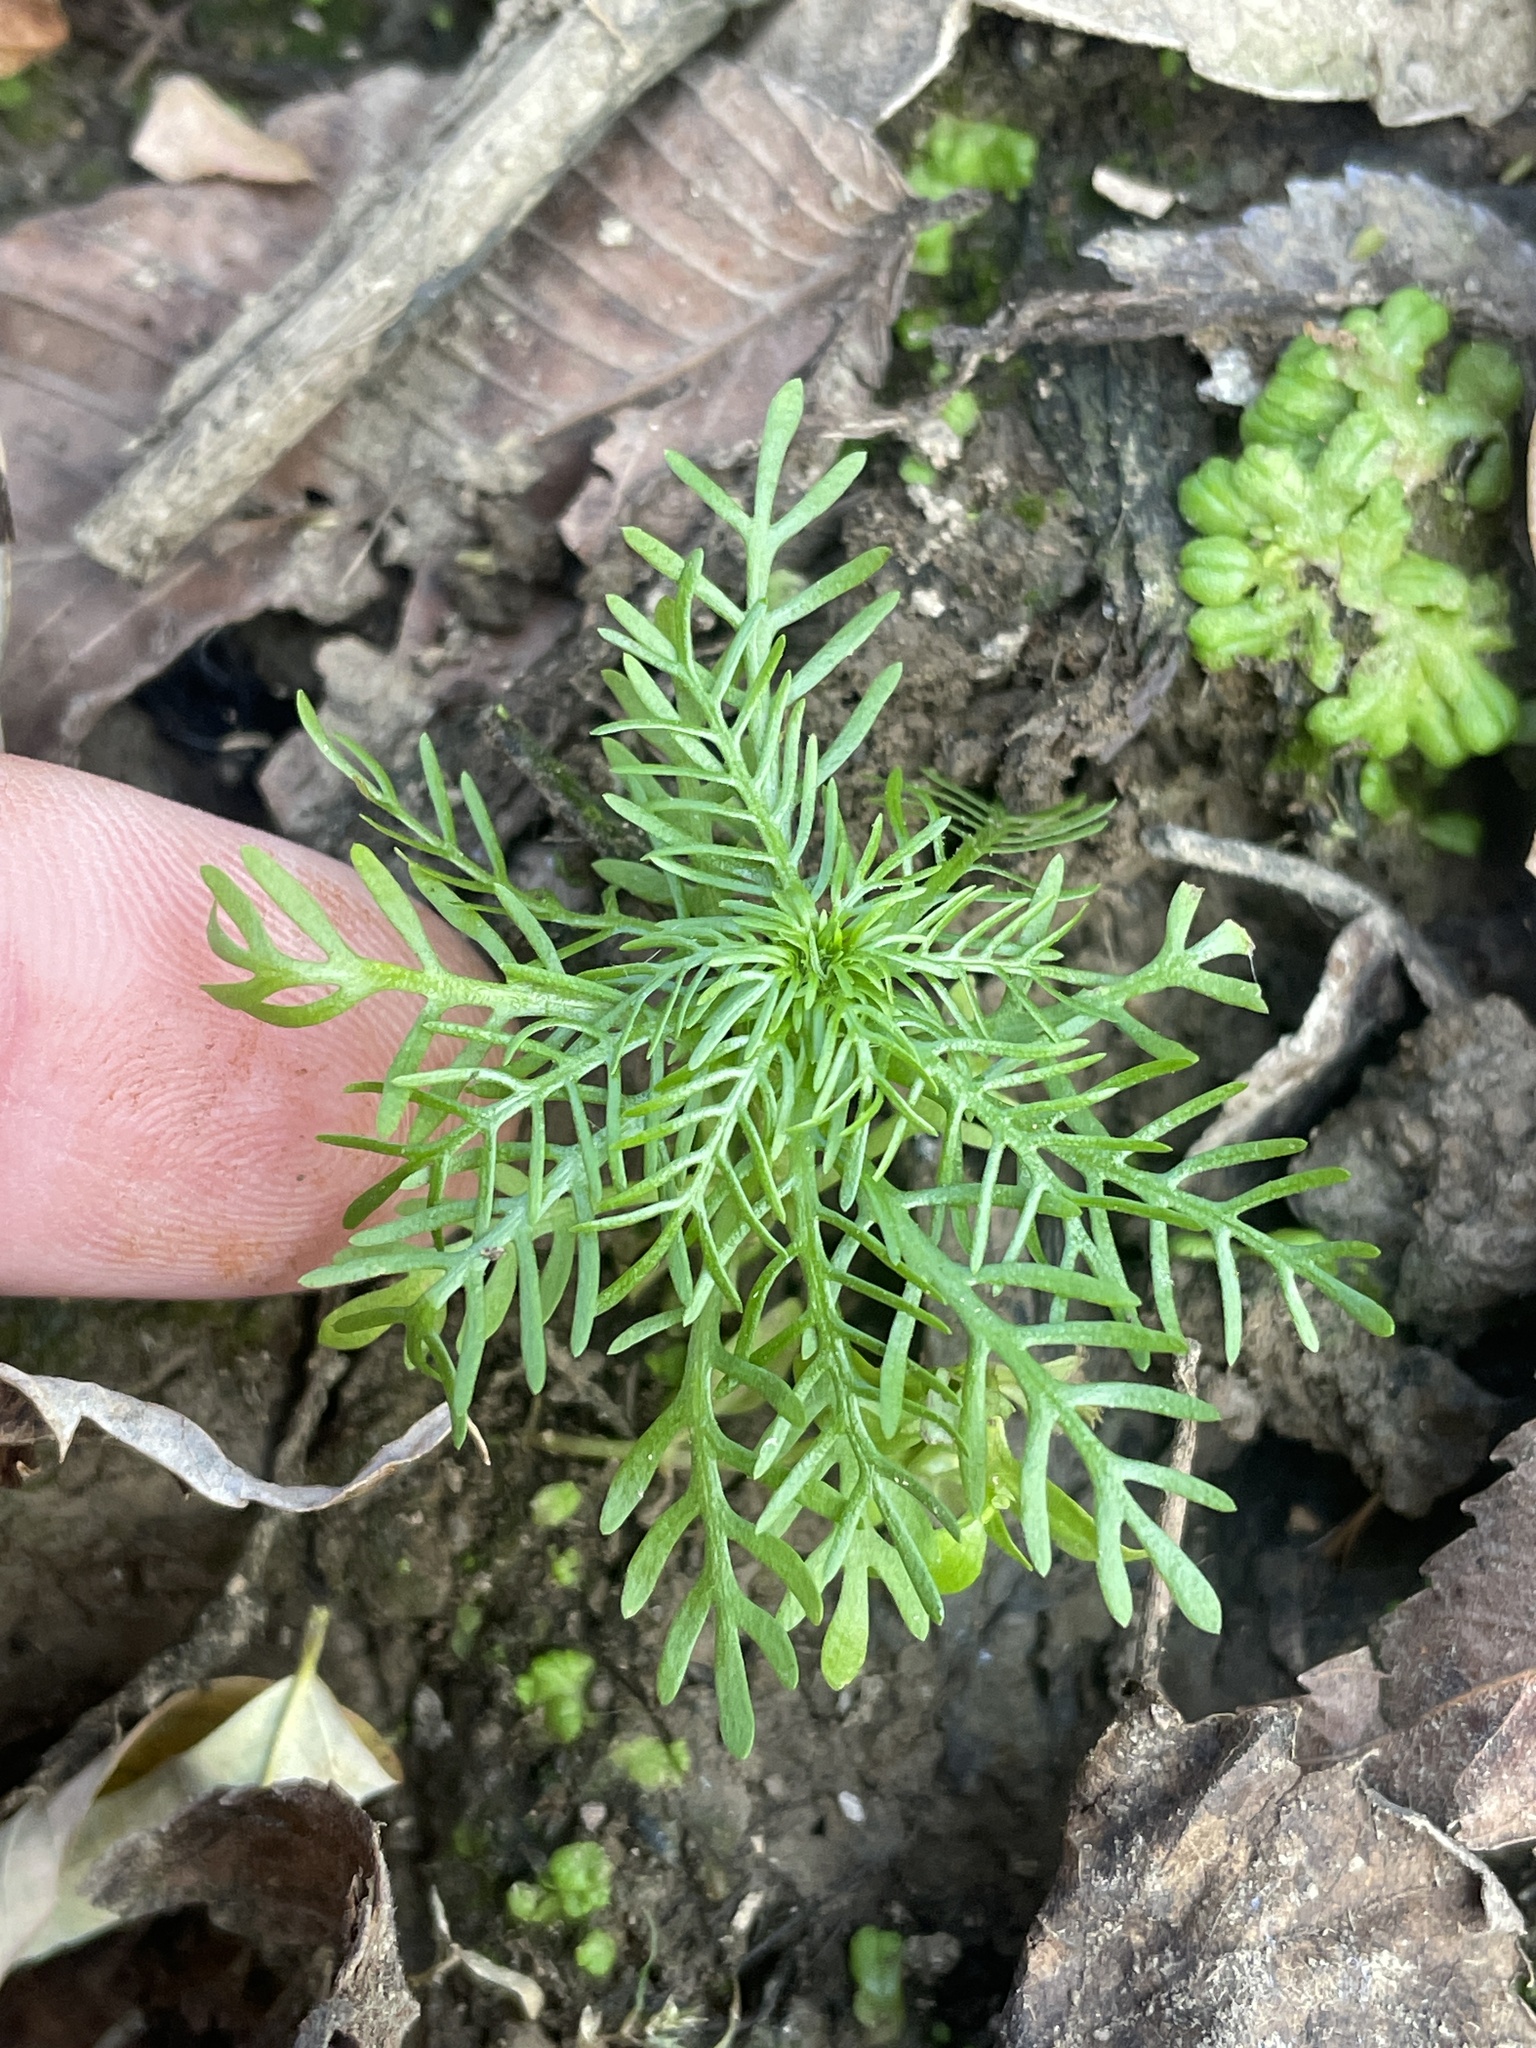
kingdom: Plantae
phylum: Tracheophyta
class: Magnoliopsida
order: Ericales
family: Primulaceae
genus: Hottonia
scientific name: Hottonia inflata
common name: American featherfoil
